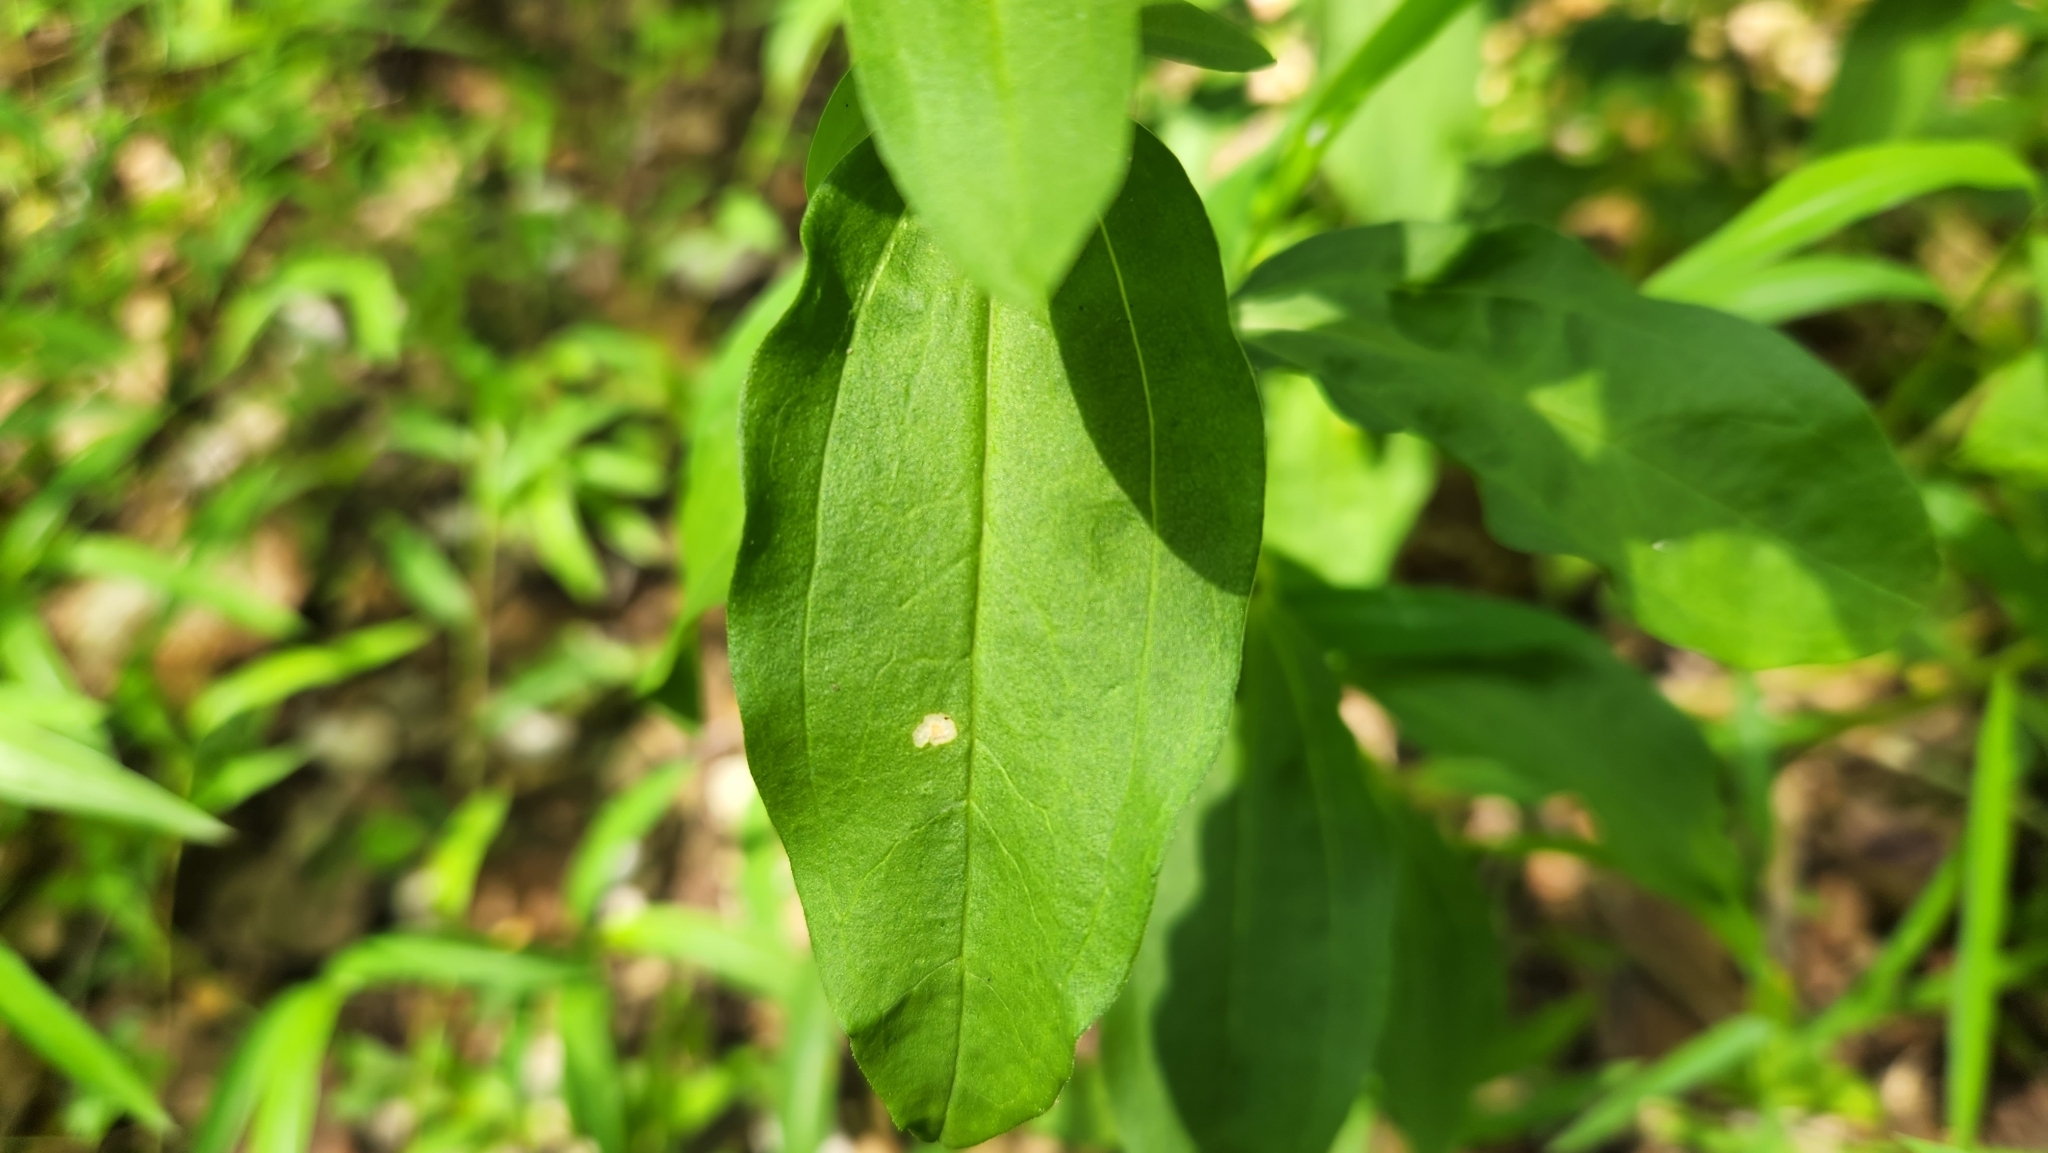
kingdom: Plantae
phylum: Tracheophyta
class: Magnoliopsida
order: Caryophyllales
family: Caryophyllaceae
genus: Saponaria
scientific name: Saponaria officinalis
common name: Soapwort
